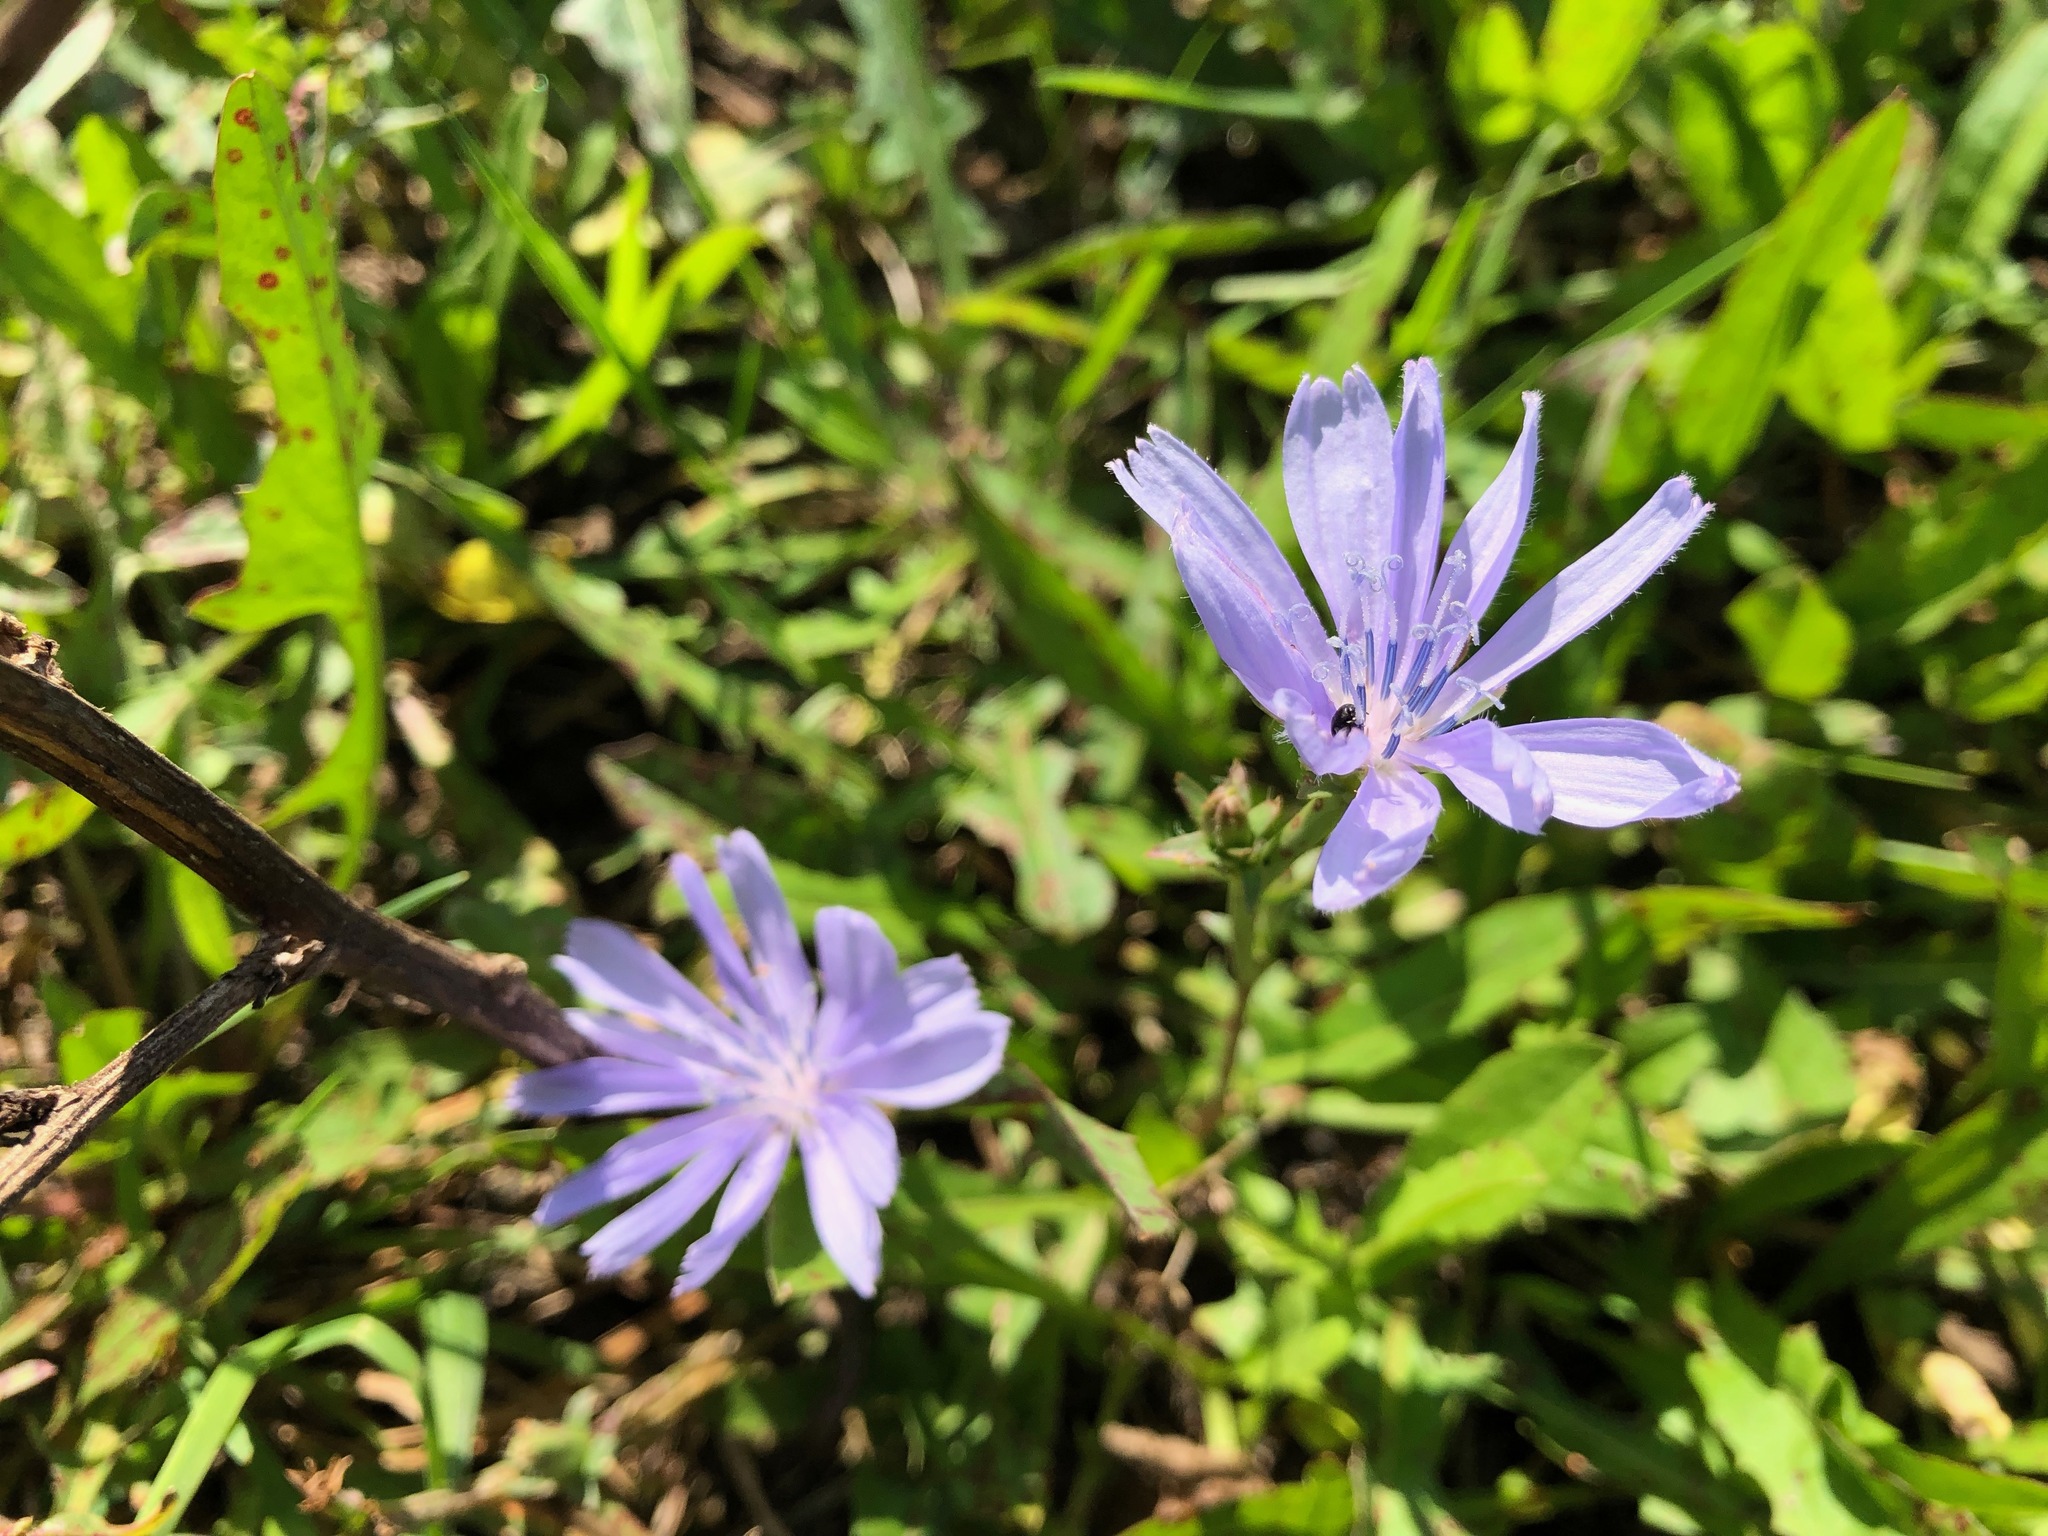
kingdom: Plantae
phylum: Tracheophyta
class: Magnoliopsida
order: Asterales
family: Asteraceae
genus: Cichorium
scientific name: Cichorium intybus
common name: Chicory
